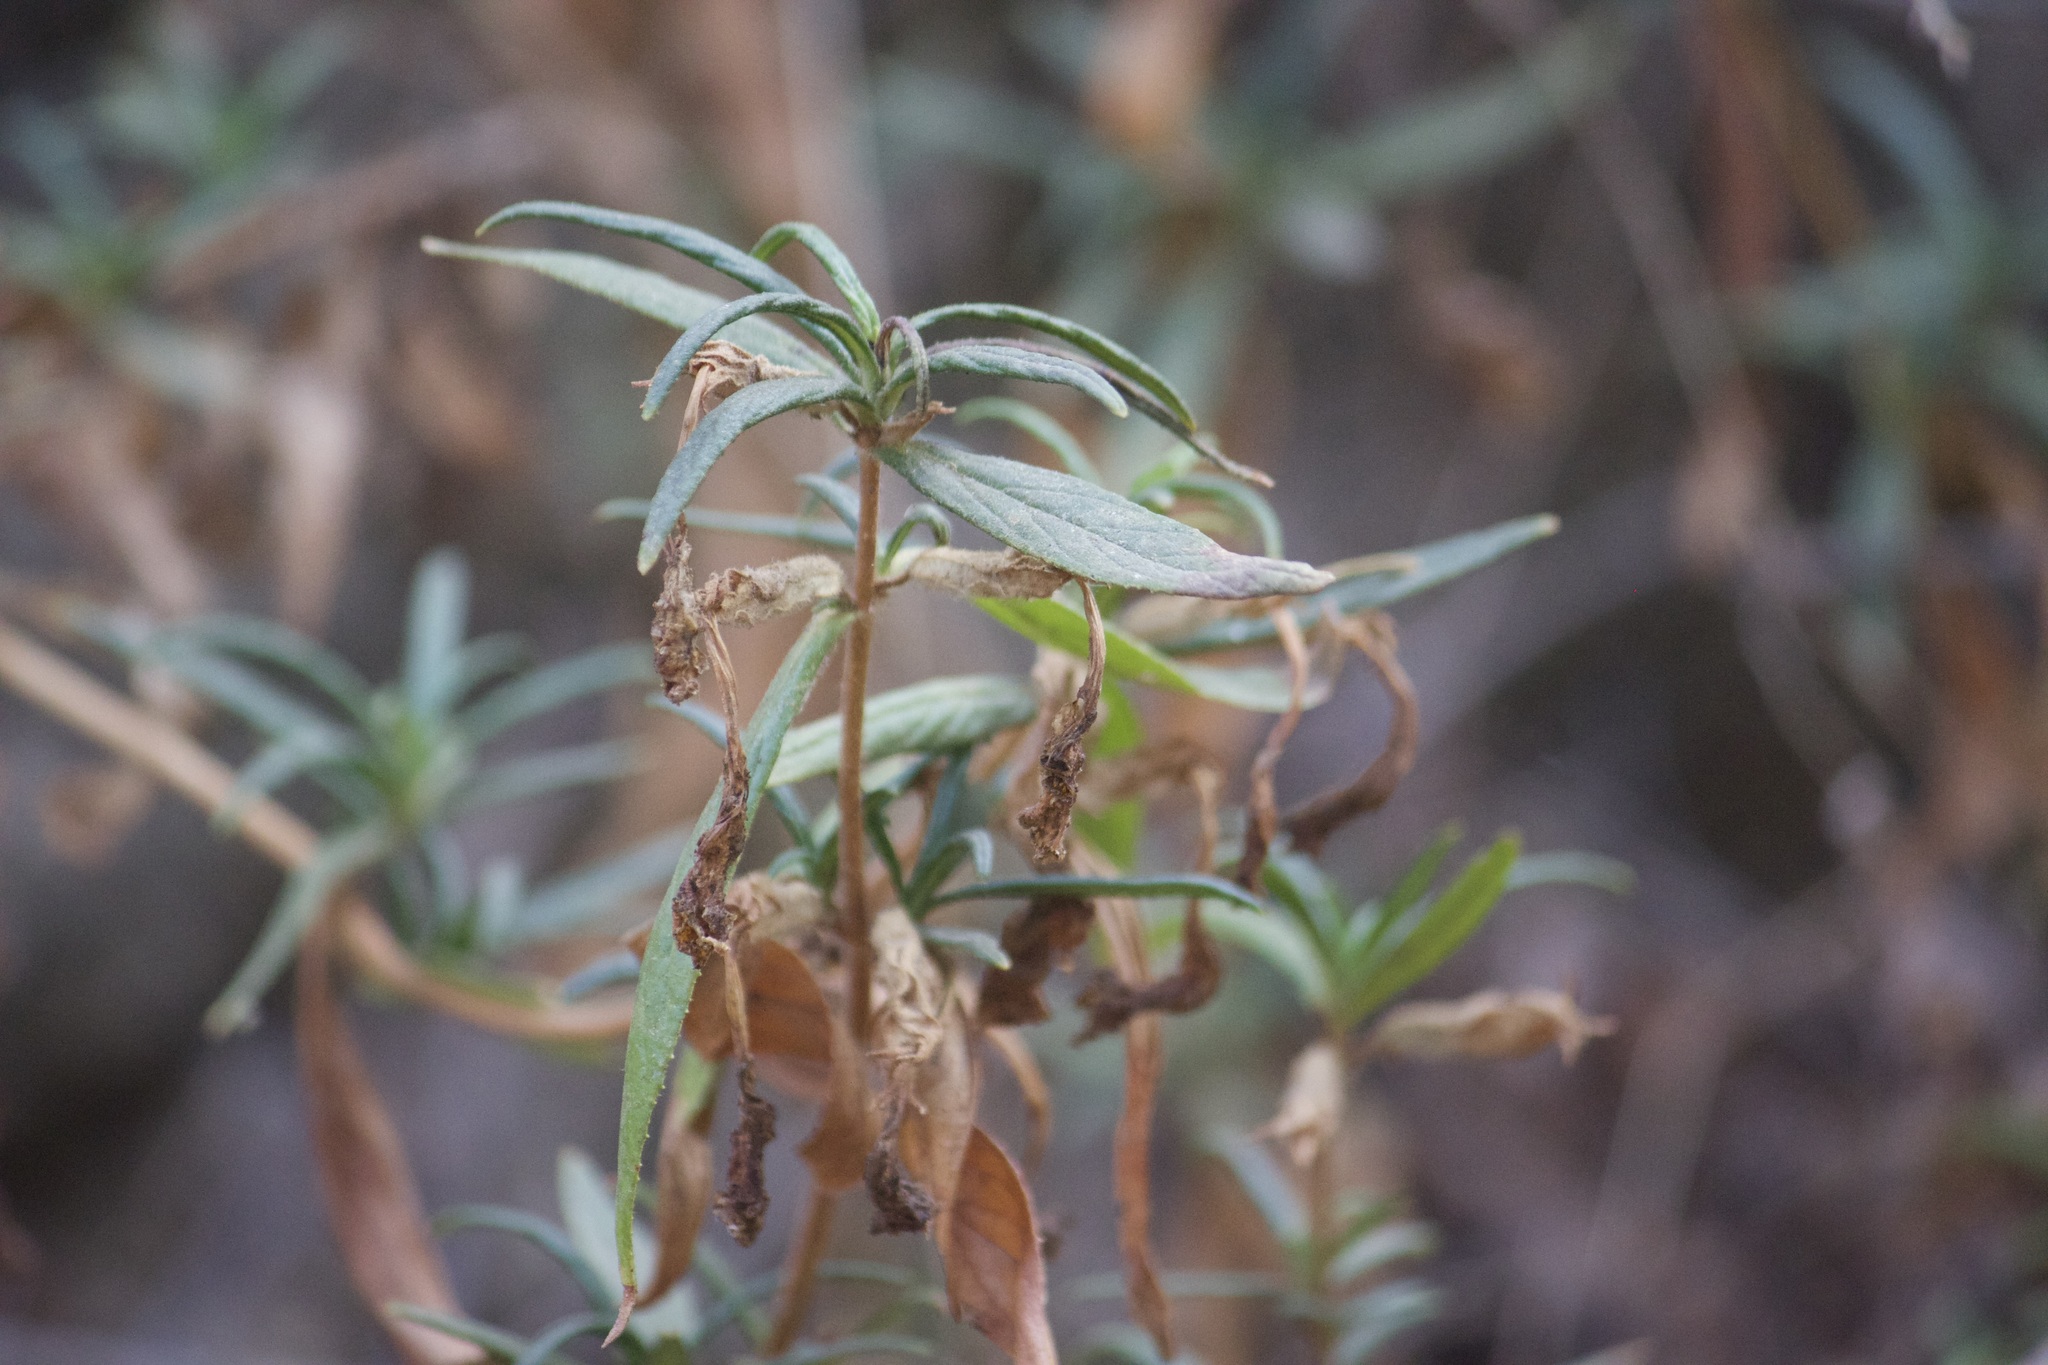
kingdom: Plantae
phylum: Tracheophyta
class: Magnoliopsida
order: Lamiales
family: Phrymaceae
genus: Diplacus
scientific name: Diplacus longiflorus
